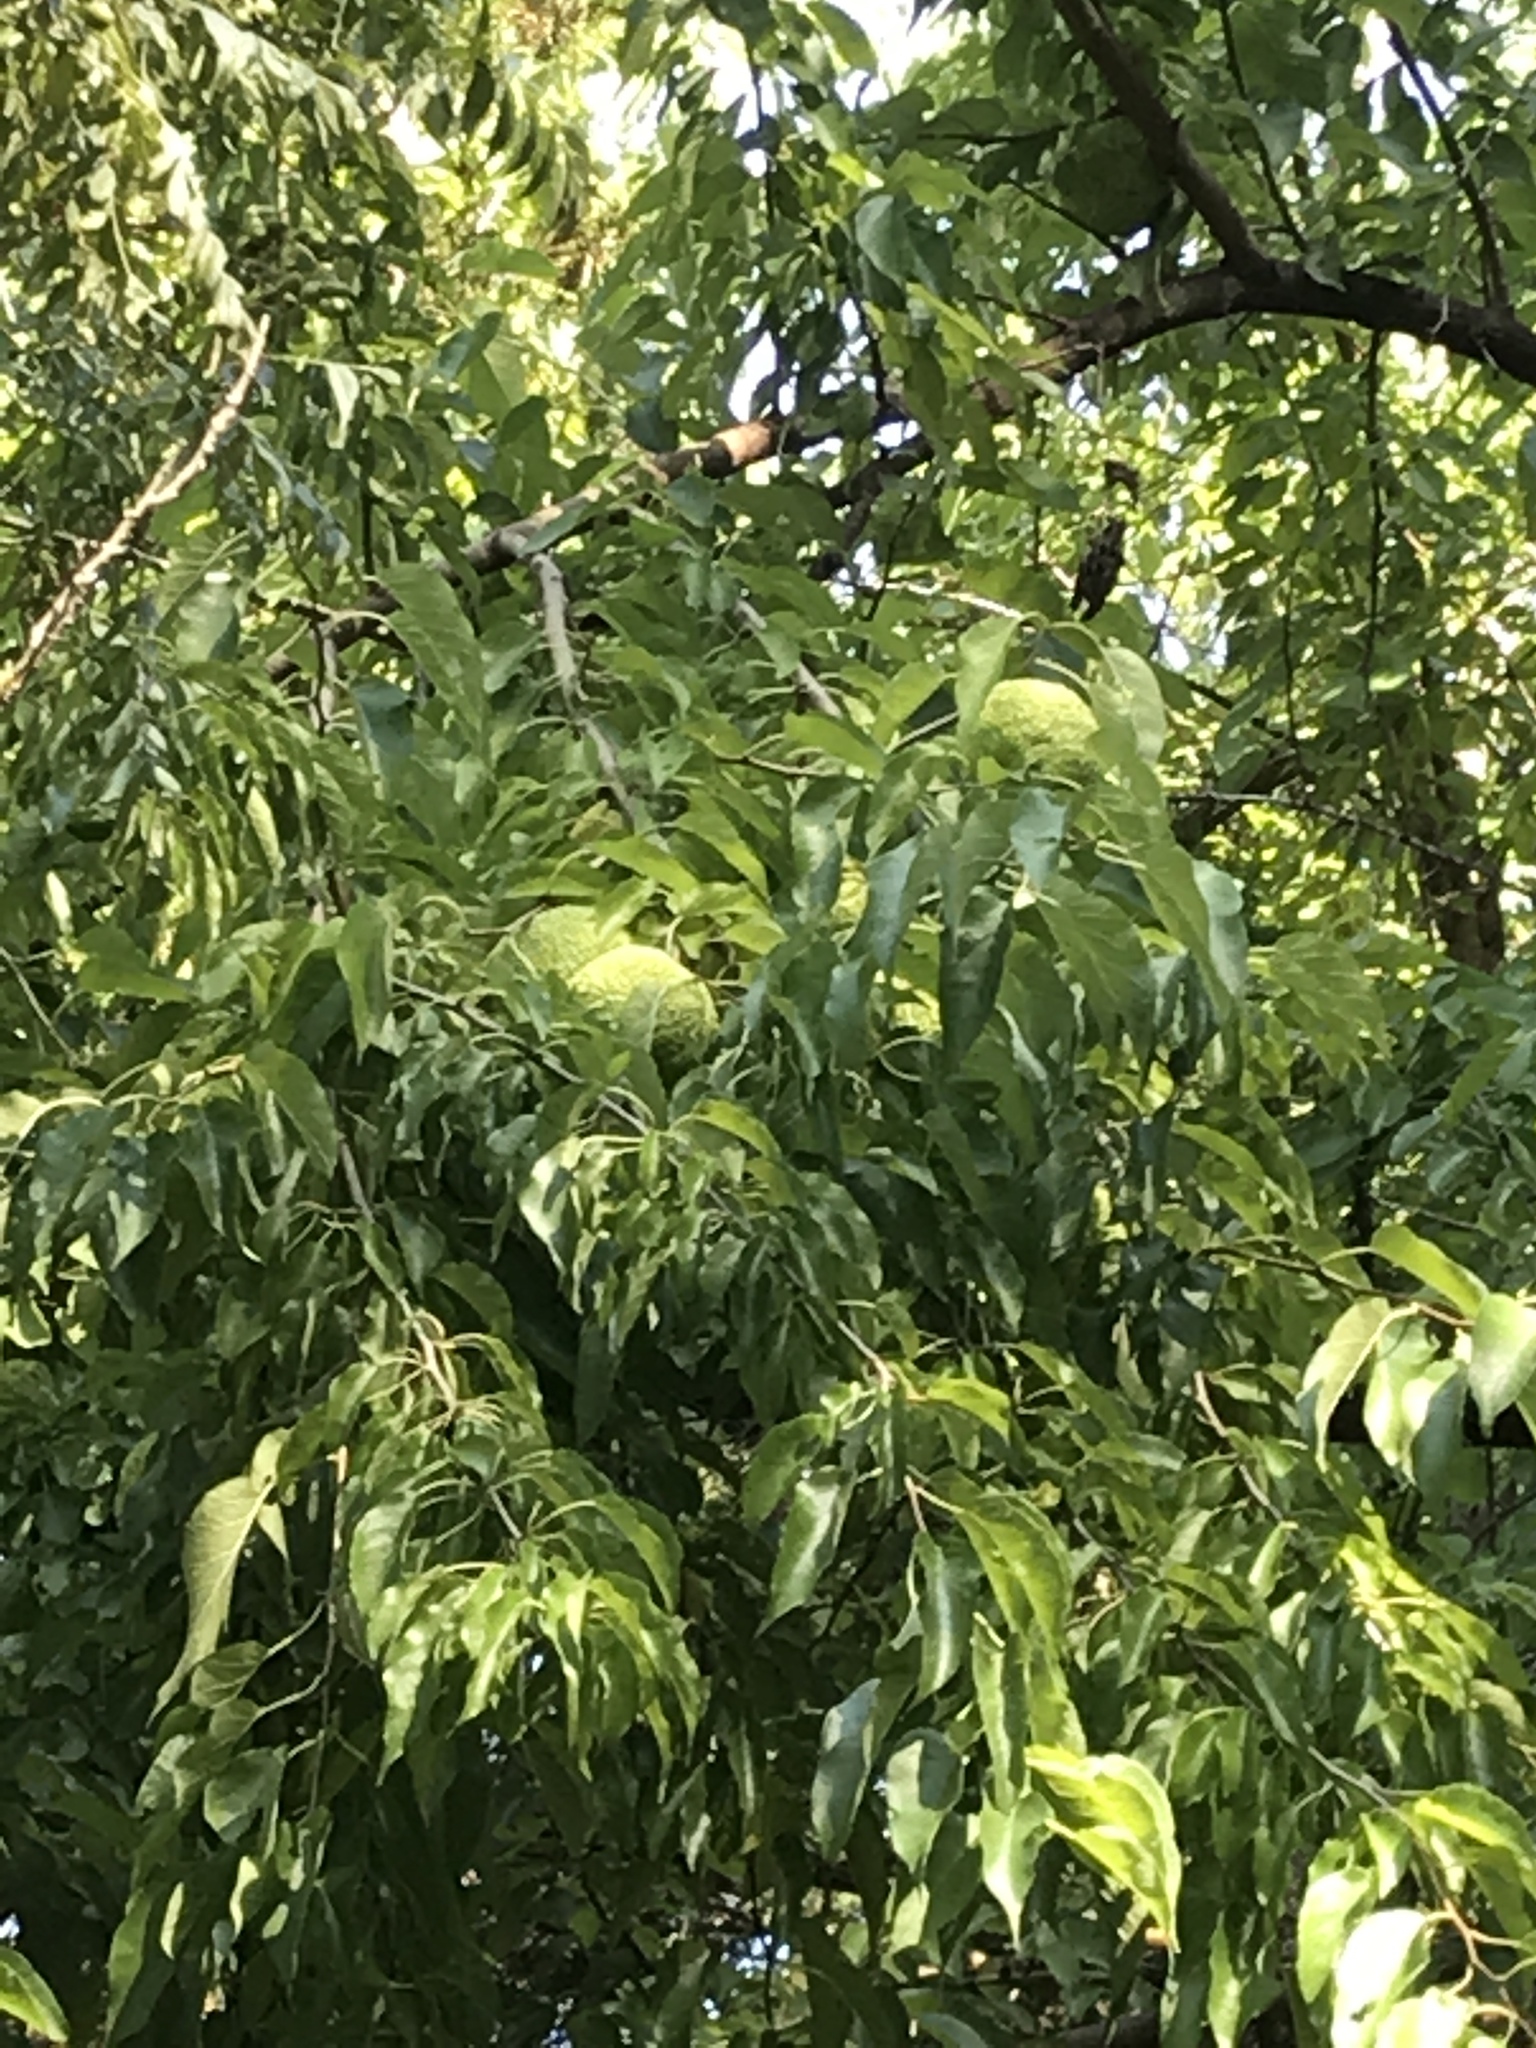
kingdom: Plantae
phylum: Tracheophyta
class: Magnoliopsida
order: Rosales
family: Moraceae
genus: Maclura
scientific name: Maclura pomifera
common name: Osage-orange
